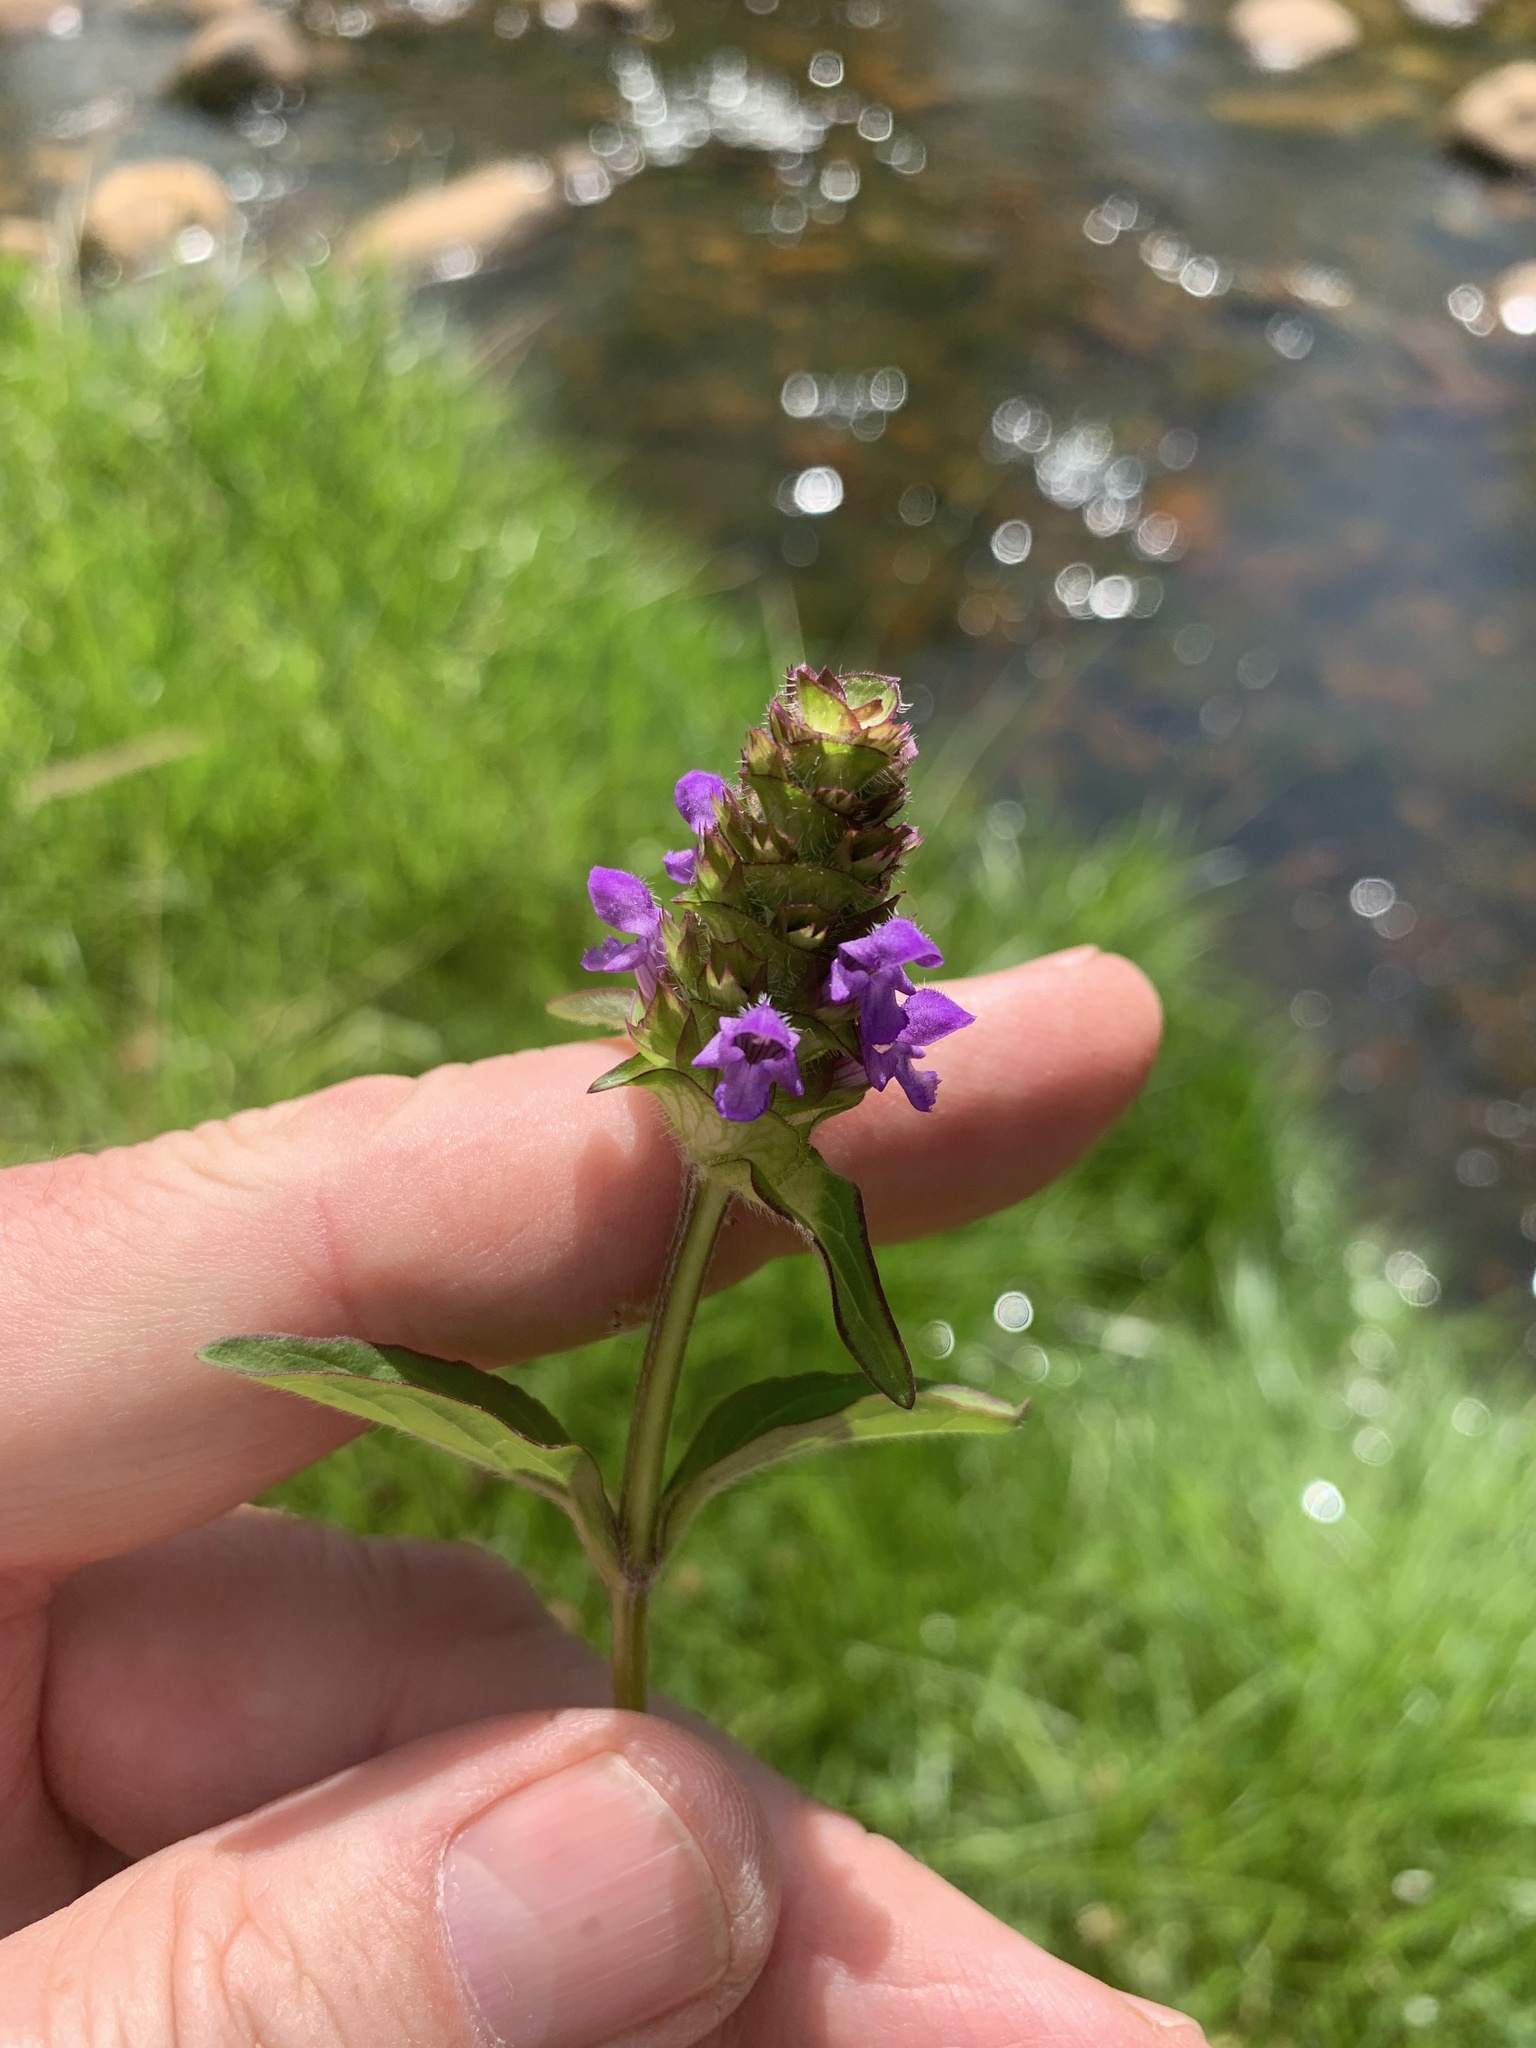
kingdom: Plantae
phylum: Tracheophyta
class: Magnoliopsida
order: Lamiales
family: Lamiaceae
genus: Prunella
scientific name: Prunella vulgaris
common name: Heal-all
